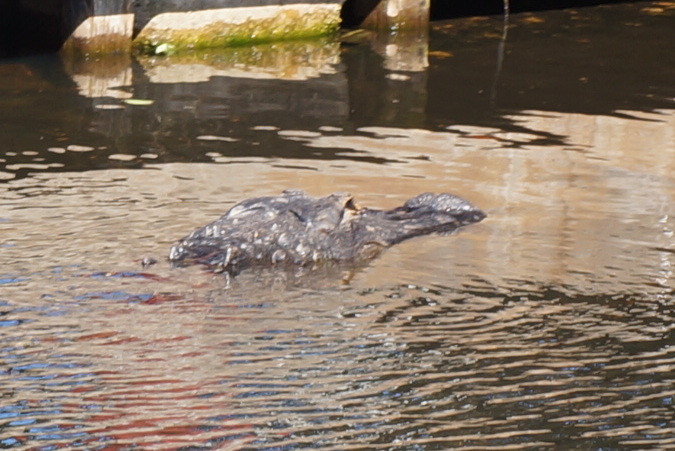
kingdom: Animalia
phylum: Chordata
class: Crocodylia
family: Alligatoridae
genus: Alligator
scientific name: Alligator mississippiensis
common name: American alligator
